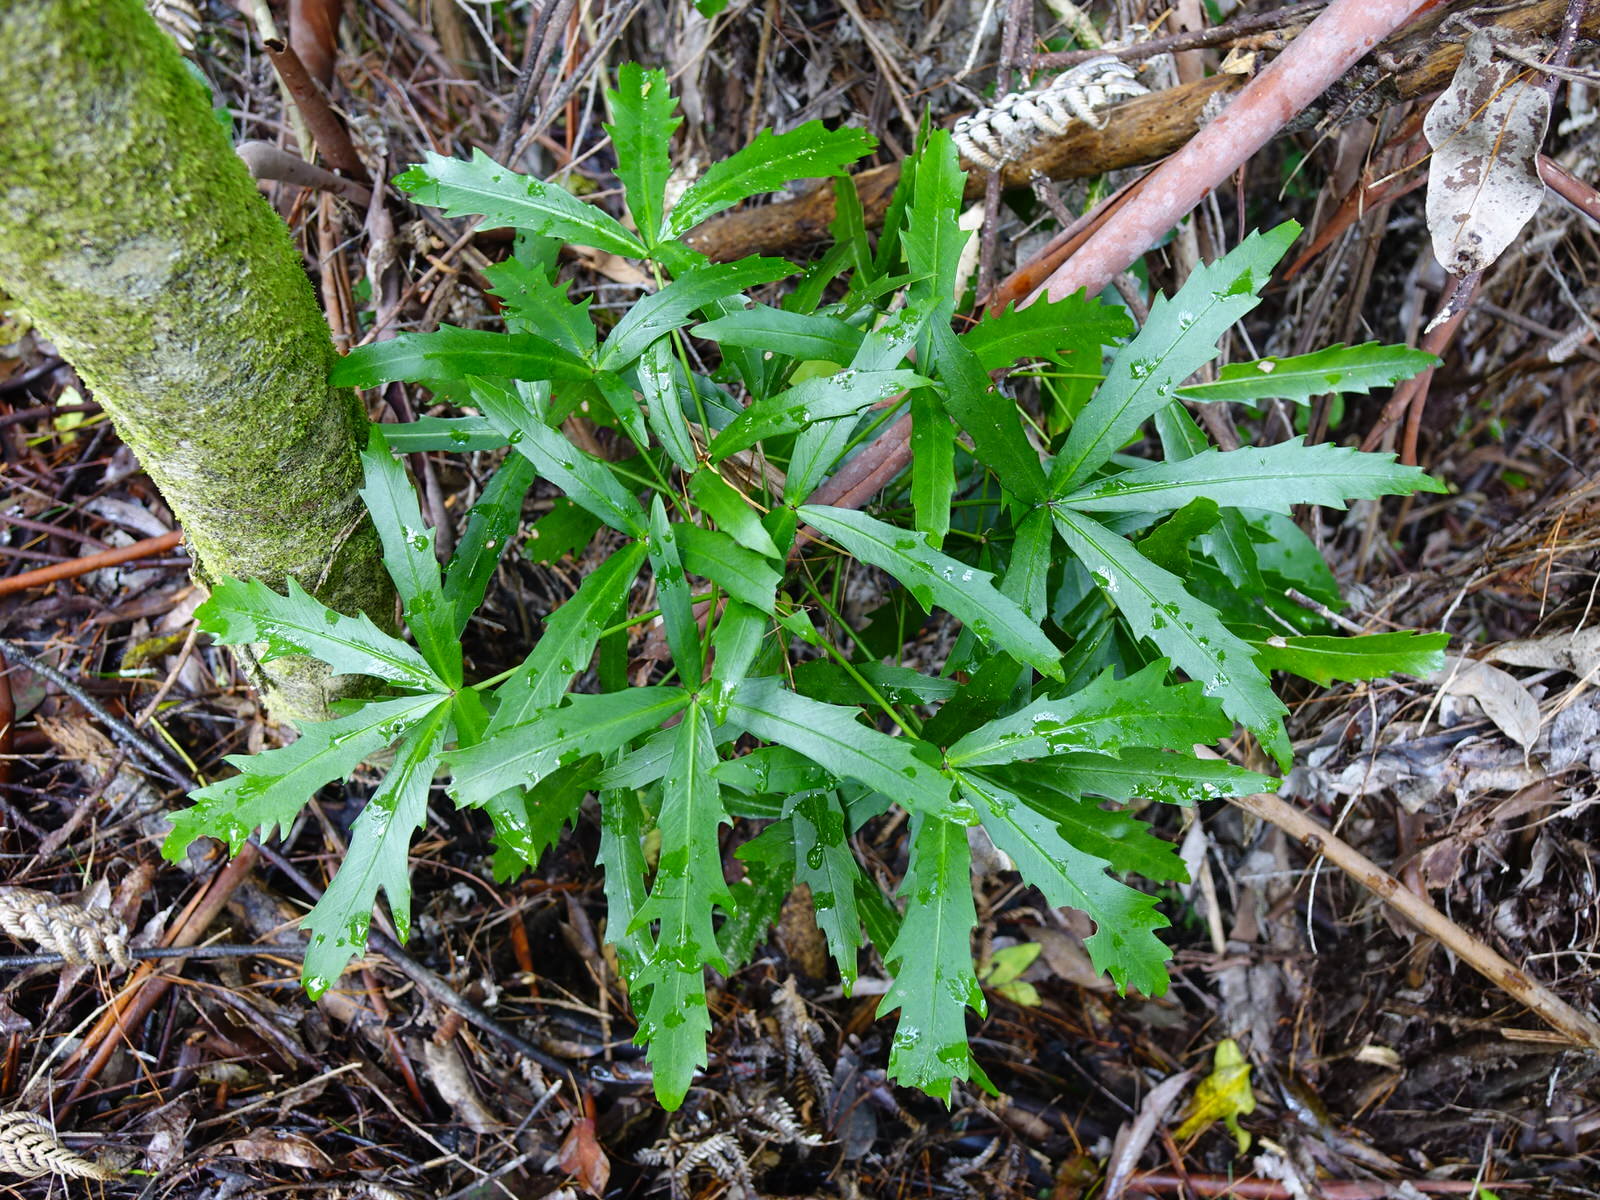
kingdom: Plantae
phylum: Tracheophyta
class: Magnoliopsida
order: Apiales
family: Araliaceae
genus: Pseudopanax
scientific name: Pseudopanax
